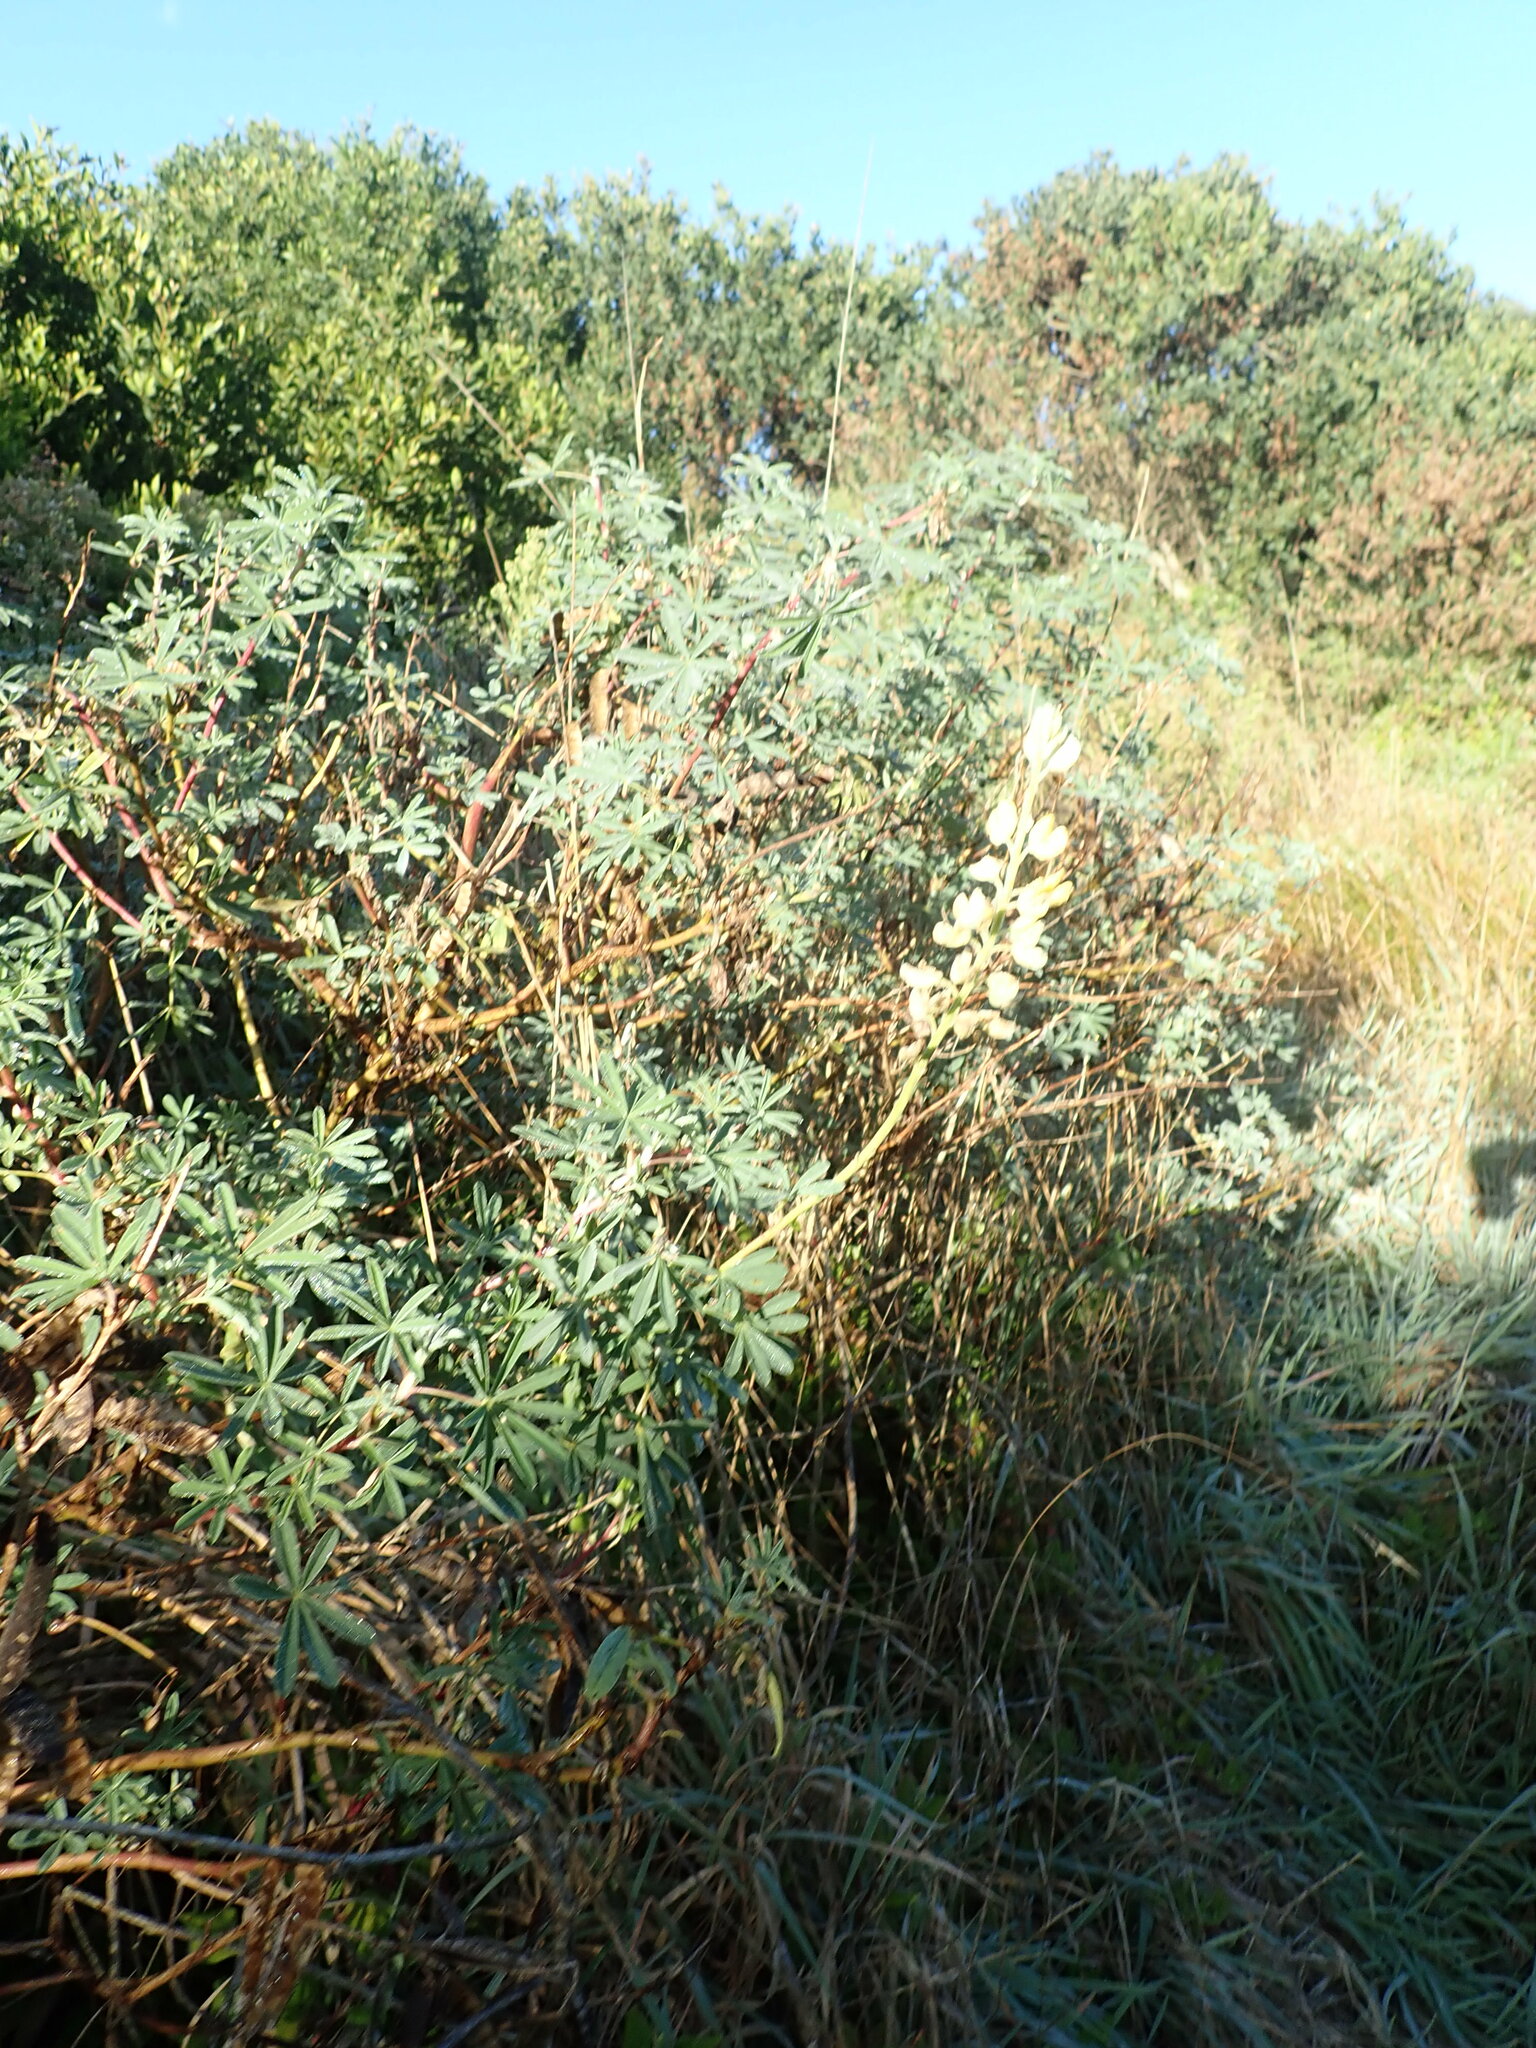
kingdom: Plantae
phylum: Tracheophyta
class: Magnoliopsida
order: Fabales
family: Fabaceae
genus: Lupinus
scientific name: Lupinus arboreus
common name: Yellow bush lupine
